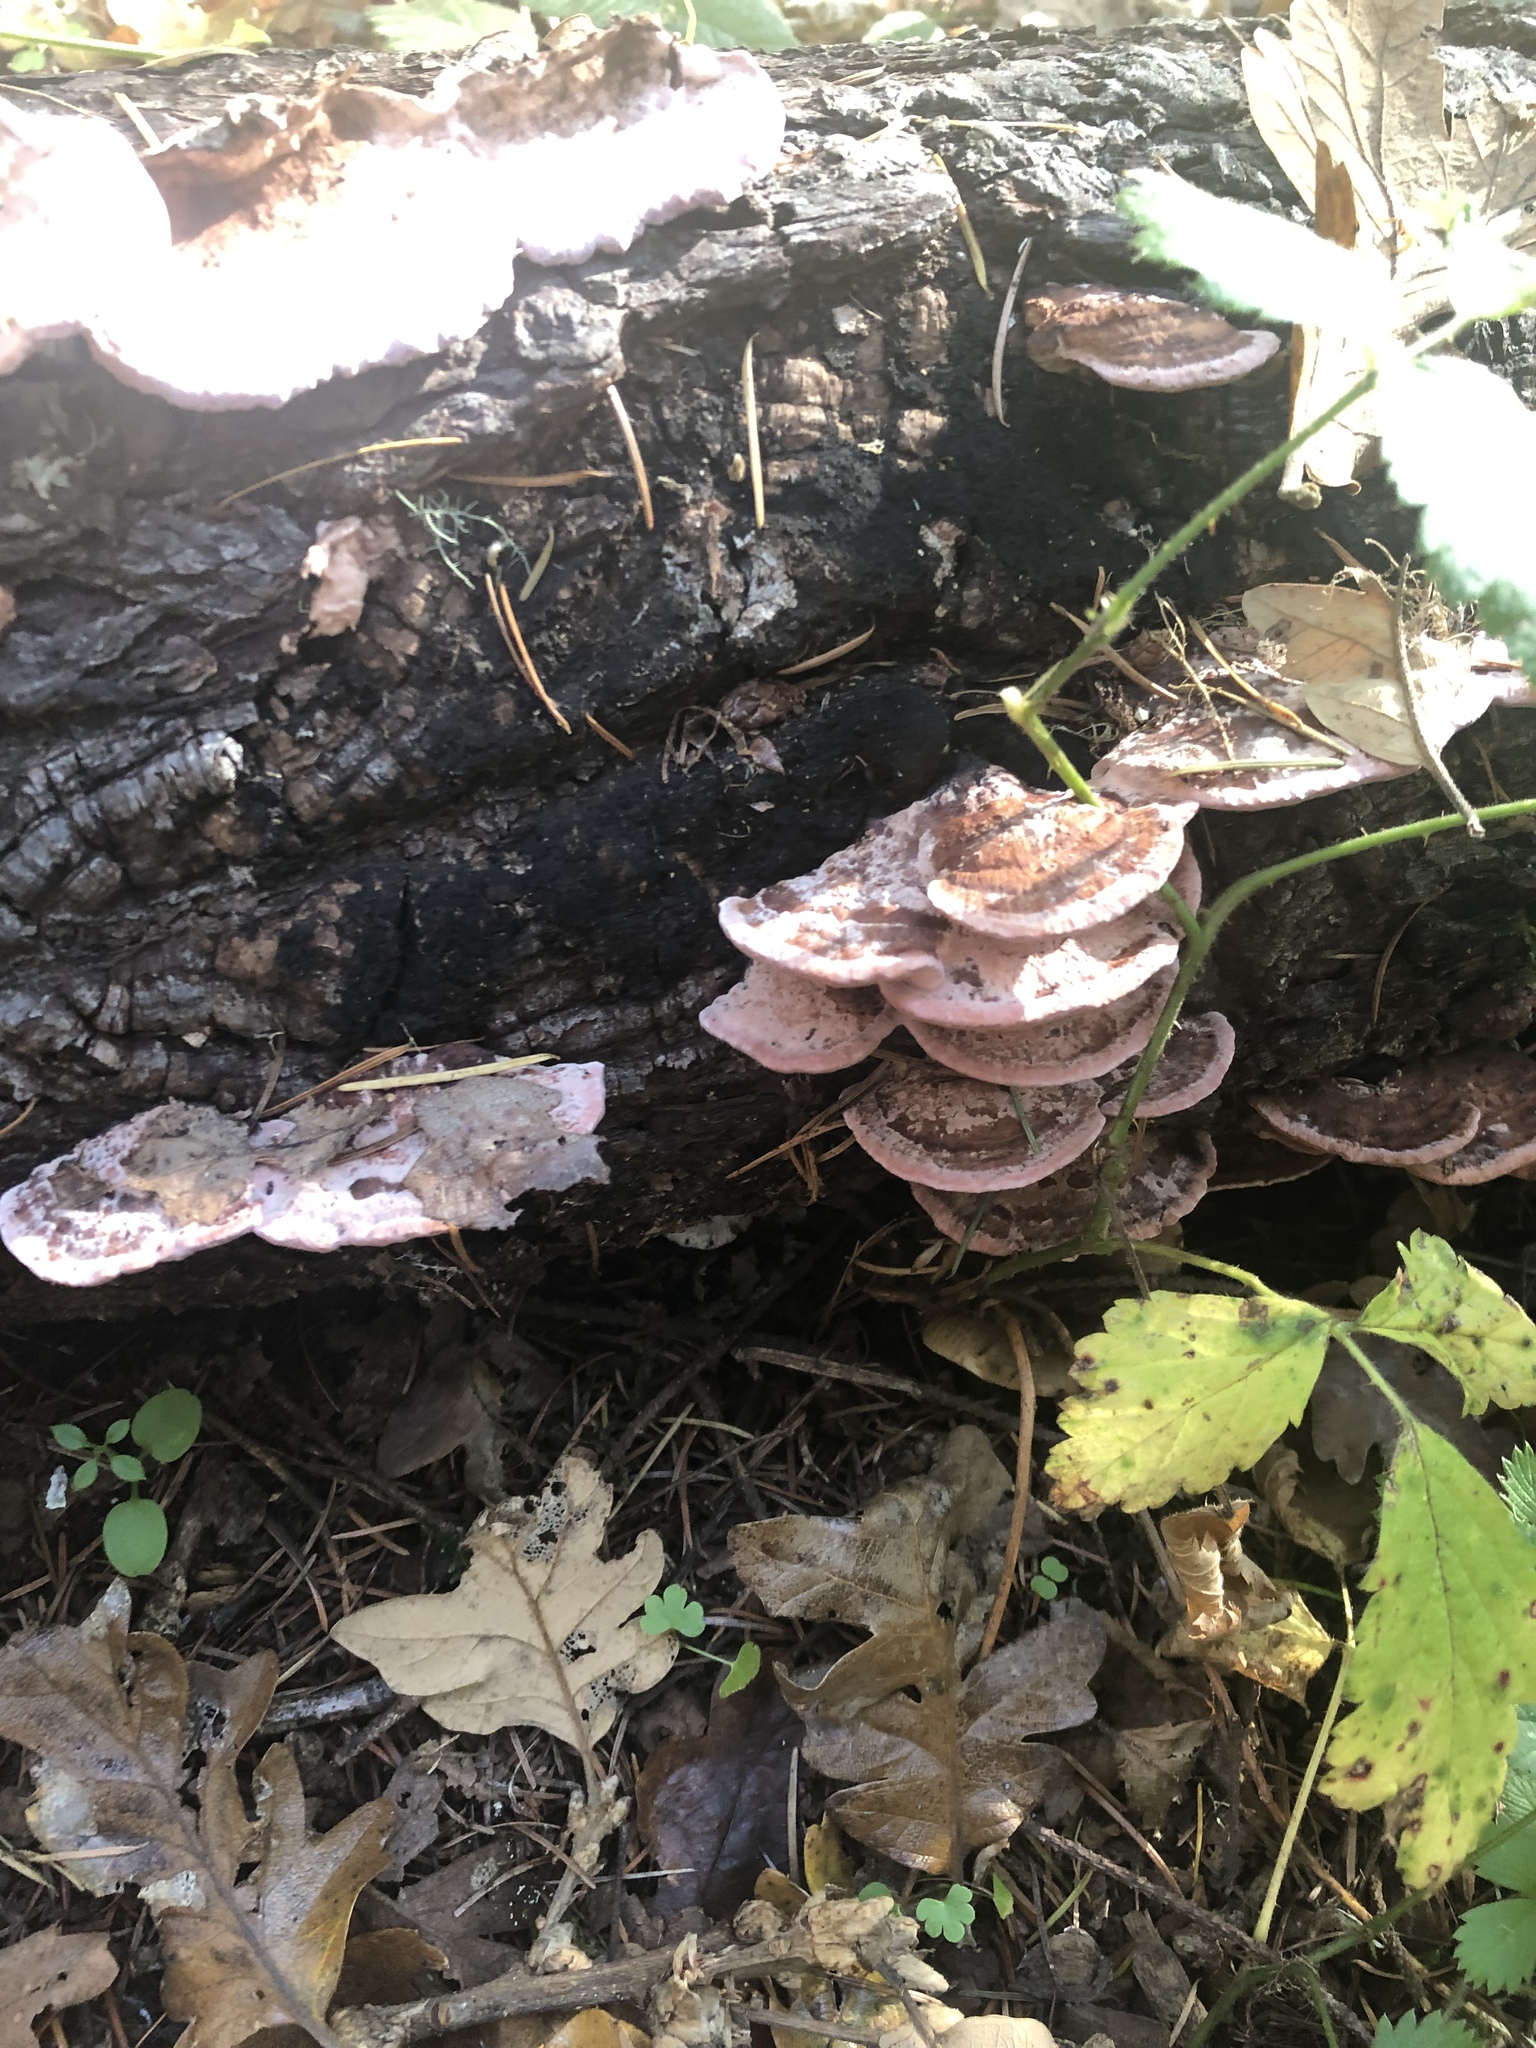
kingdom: Fungi
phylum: Basidiomycota
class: Agaricomycetes
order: Polyporales
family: Fomitopsidaceae
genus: Rhodofomes
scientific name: Rhodofomes cajanderi
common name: Rosy conk
